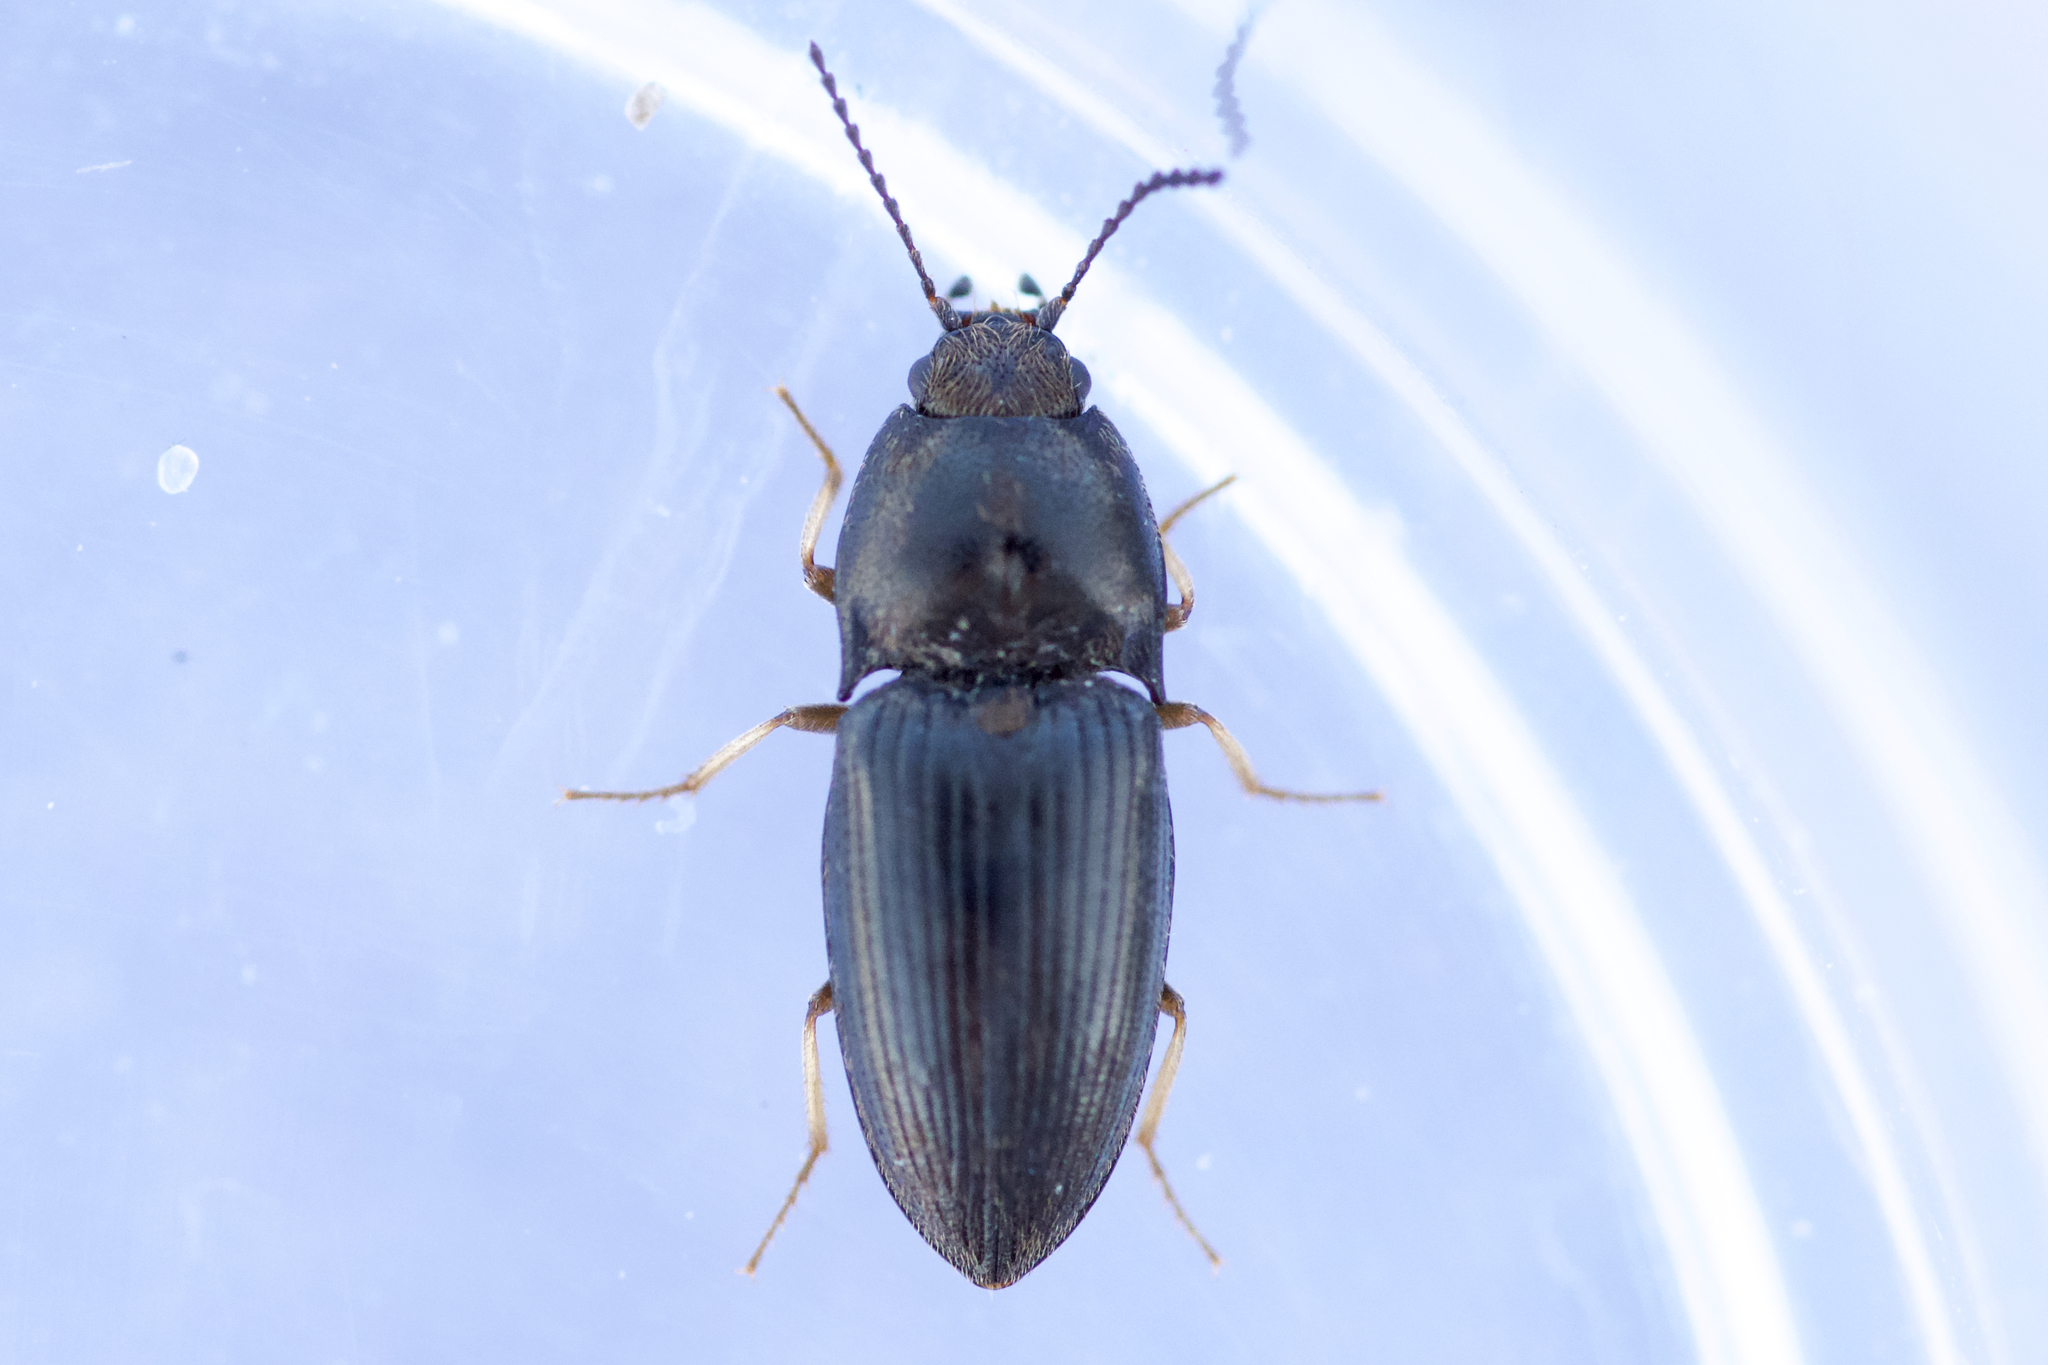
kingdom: Animalia
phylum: Arthropoda
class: Insecta
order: Coleoptera
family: Elateridae
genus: Hypnoidus
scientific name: Hypnoidus abbreviatus
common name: Abbreviated wireworm
